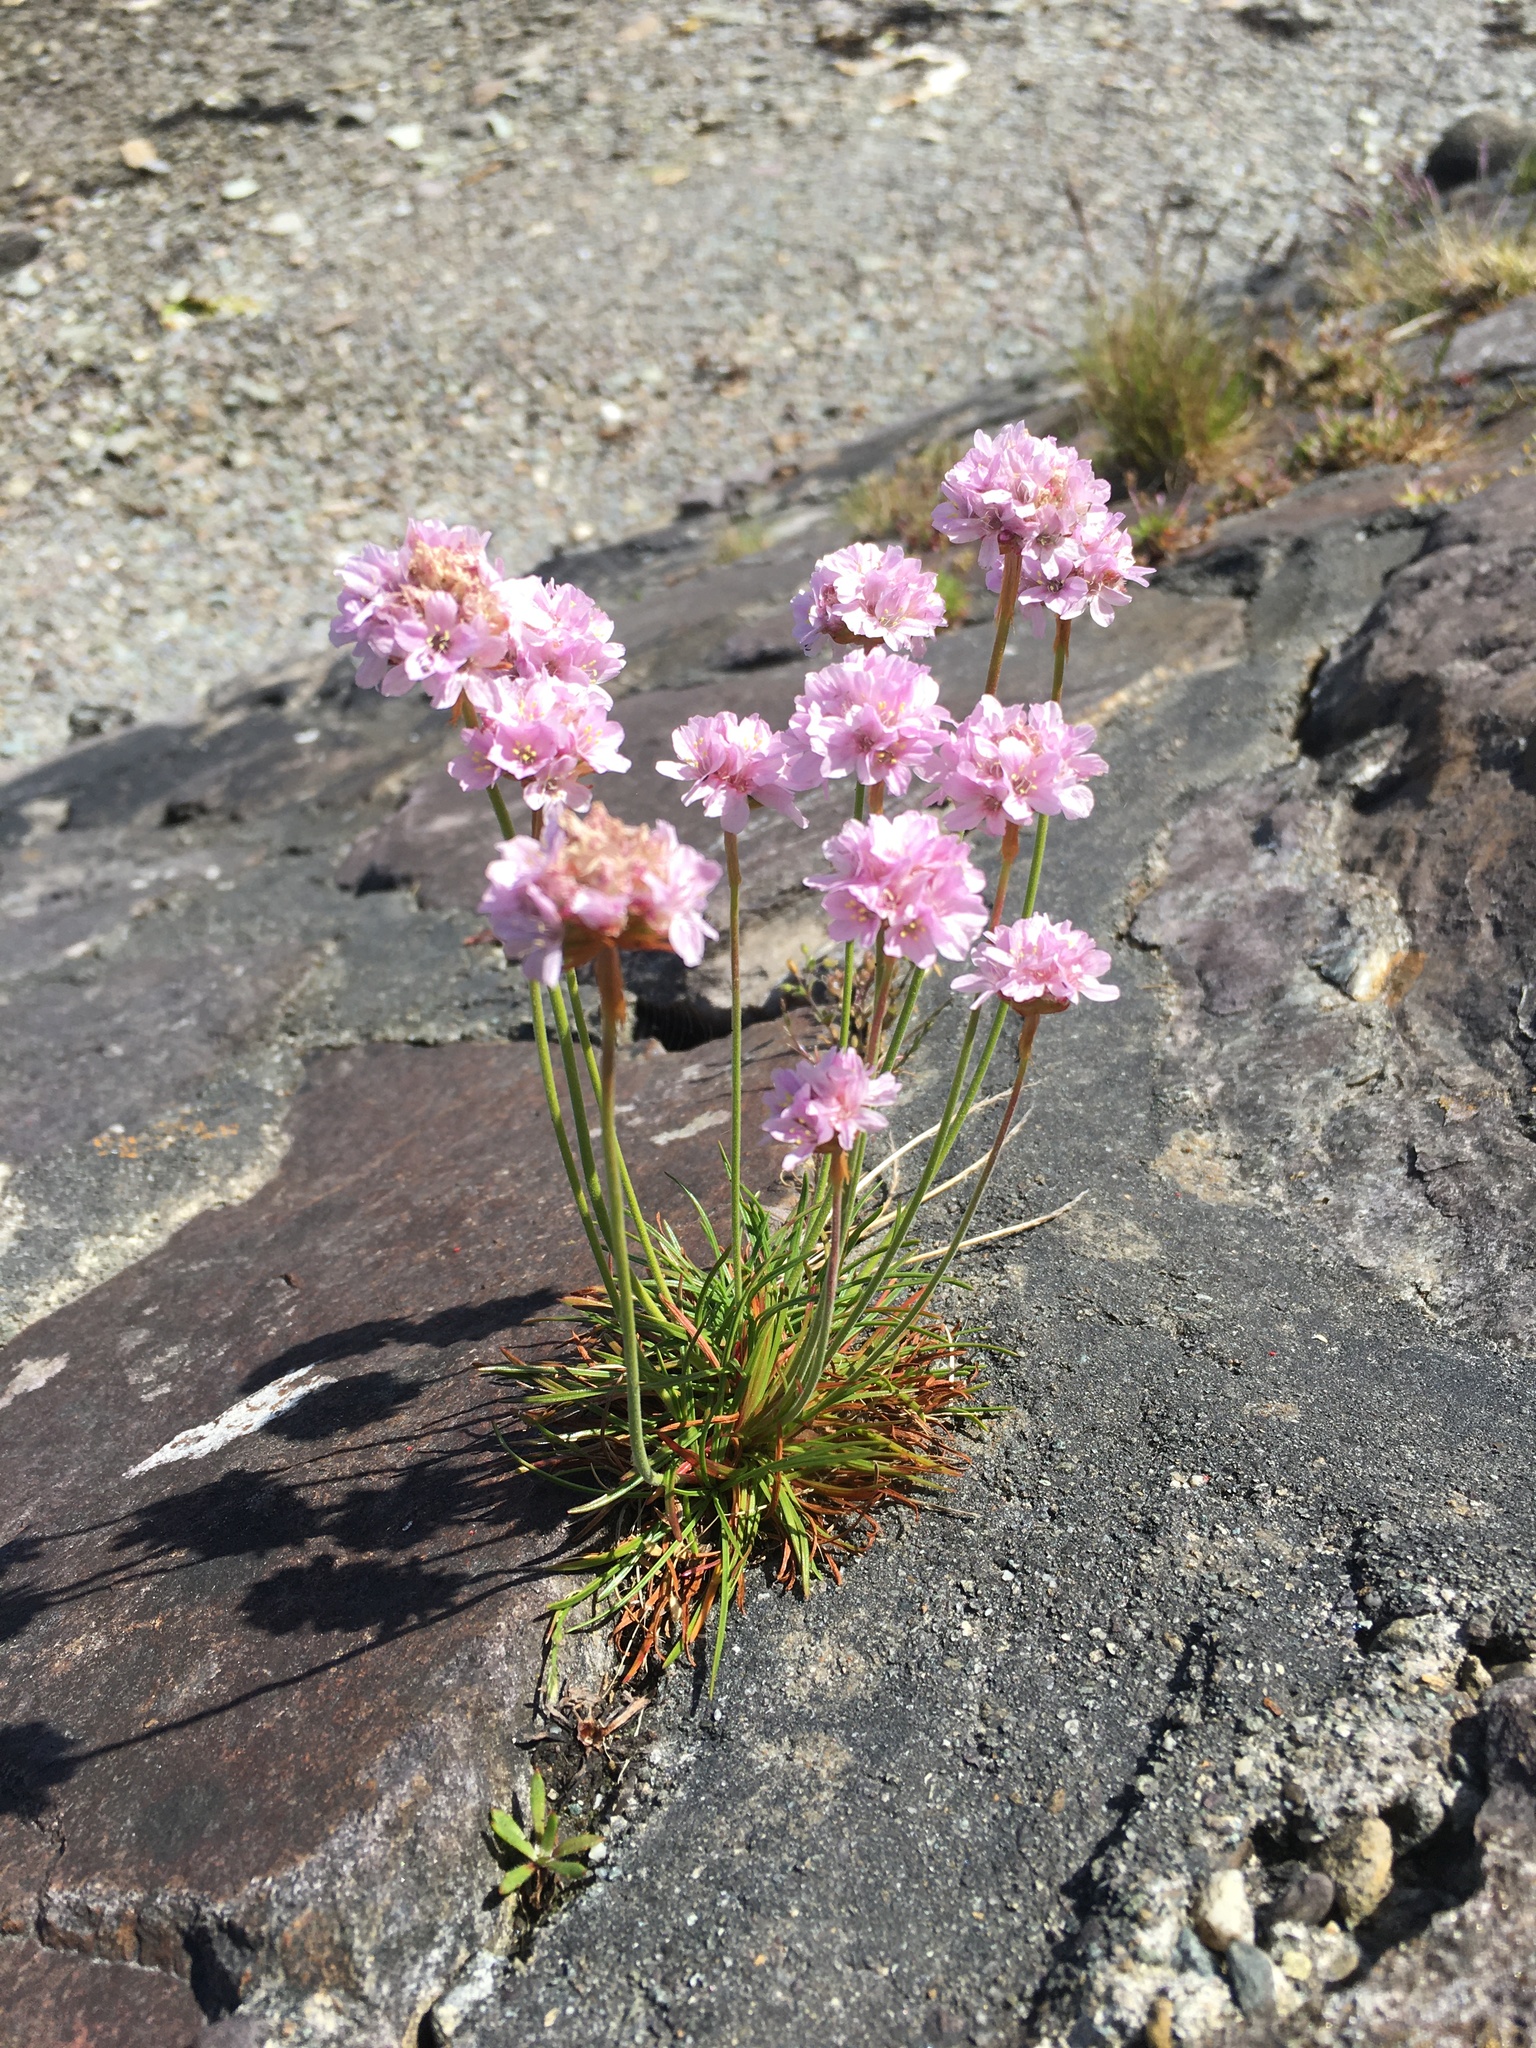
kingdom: Plantae
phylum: Tracheophyta
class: Magnoliopsida
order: Caryophyllales
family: Plumbaginaceae
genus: Armeria
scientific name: Armeria maritima
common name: Thrift
